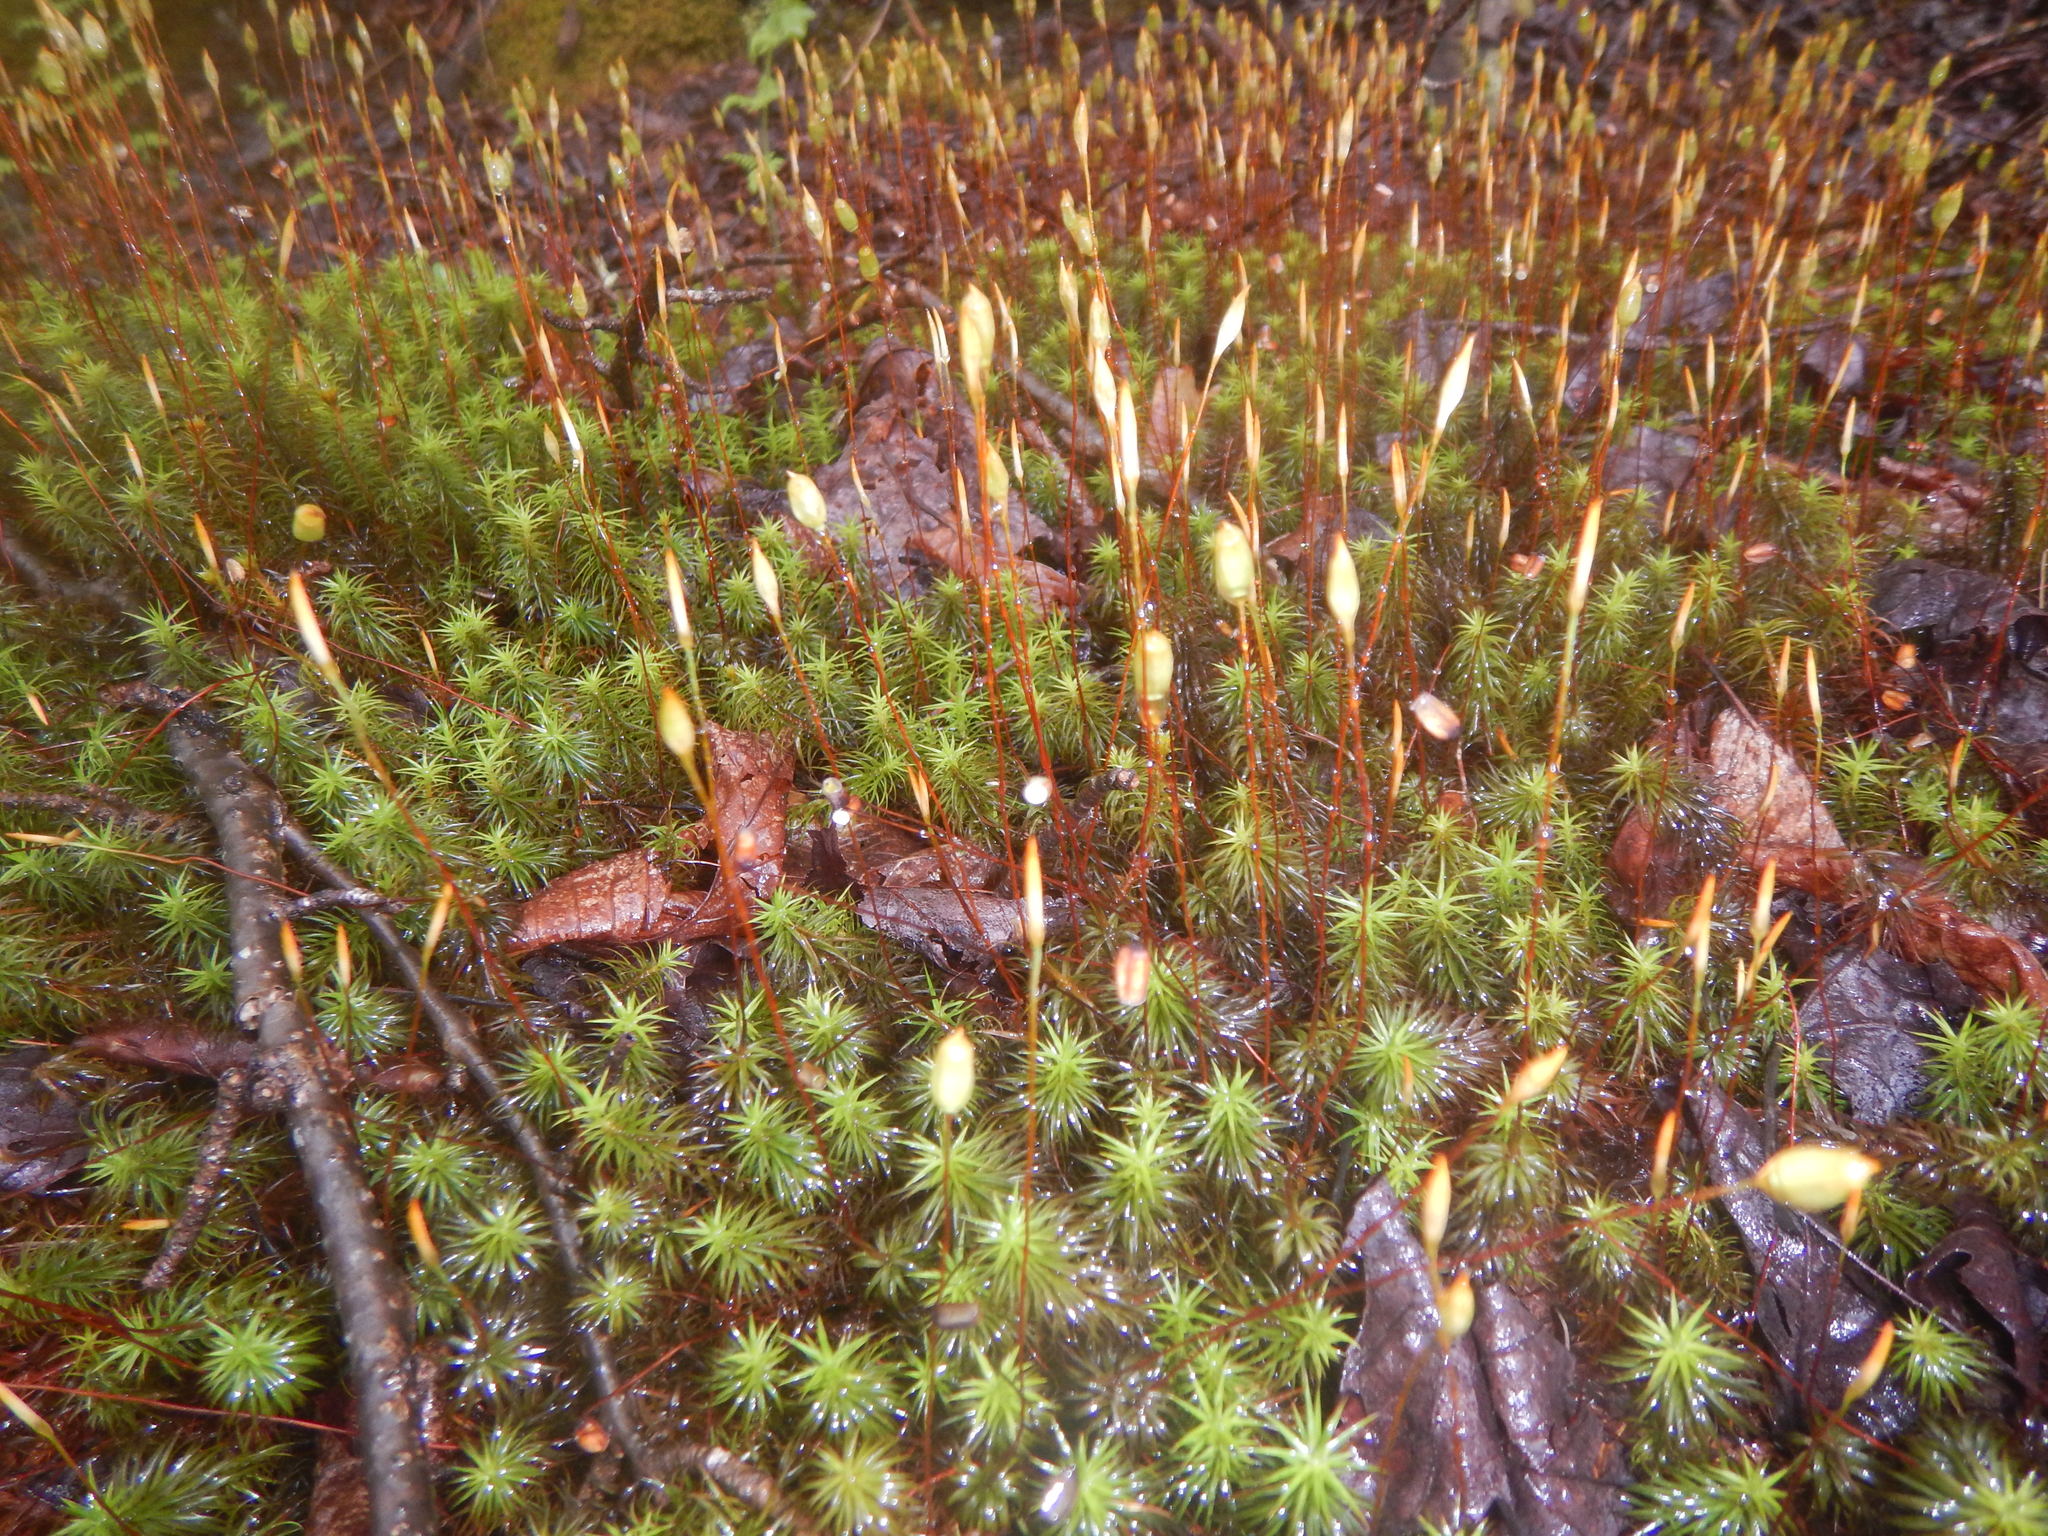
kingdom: Plantae
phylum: Bryophyta
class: Polytrichopsida
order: Polytrichales
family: Polytrichaceae
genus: Polytrichum
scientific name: Polytrichum commune
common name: Common haircap
